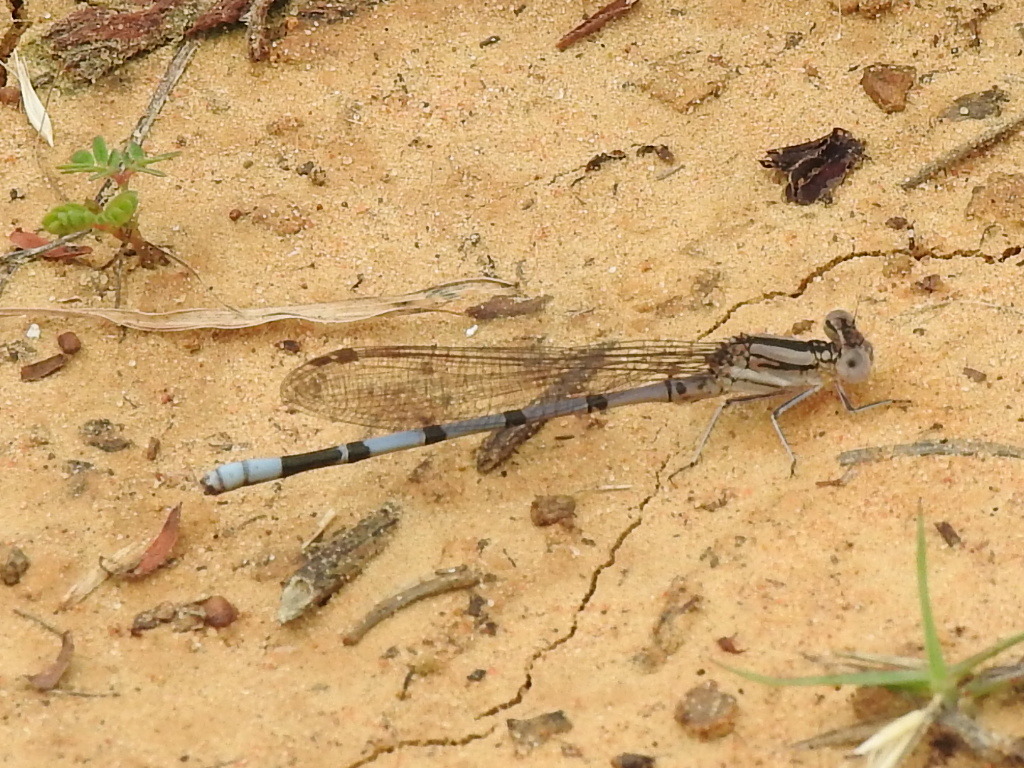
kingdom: Animalia
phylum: Arthropoda
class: Insecta
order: Odonata
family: Coenagrionidae
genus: Argia
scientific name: Argia nahuana
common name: Aztec dancer
